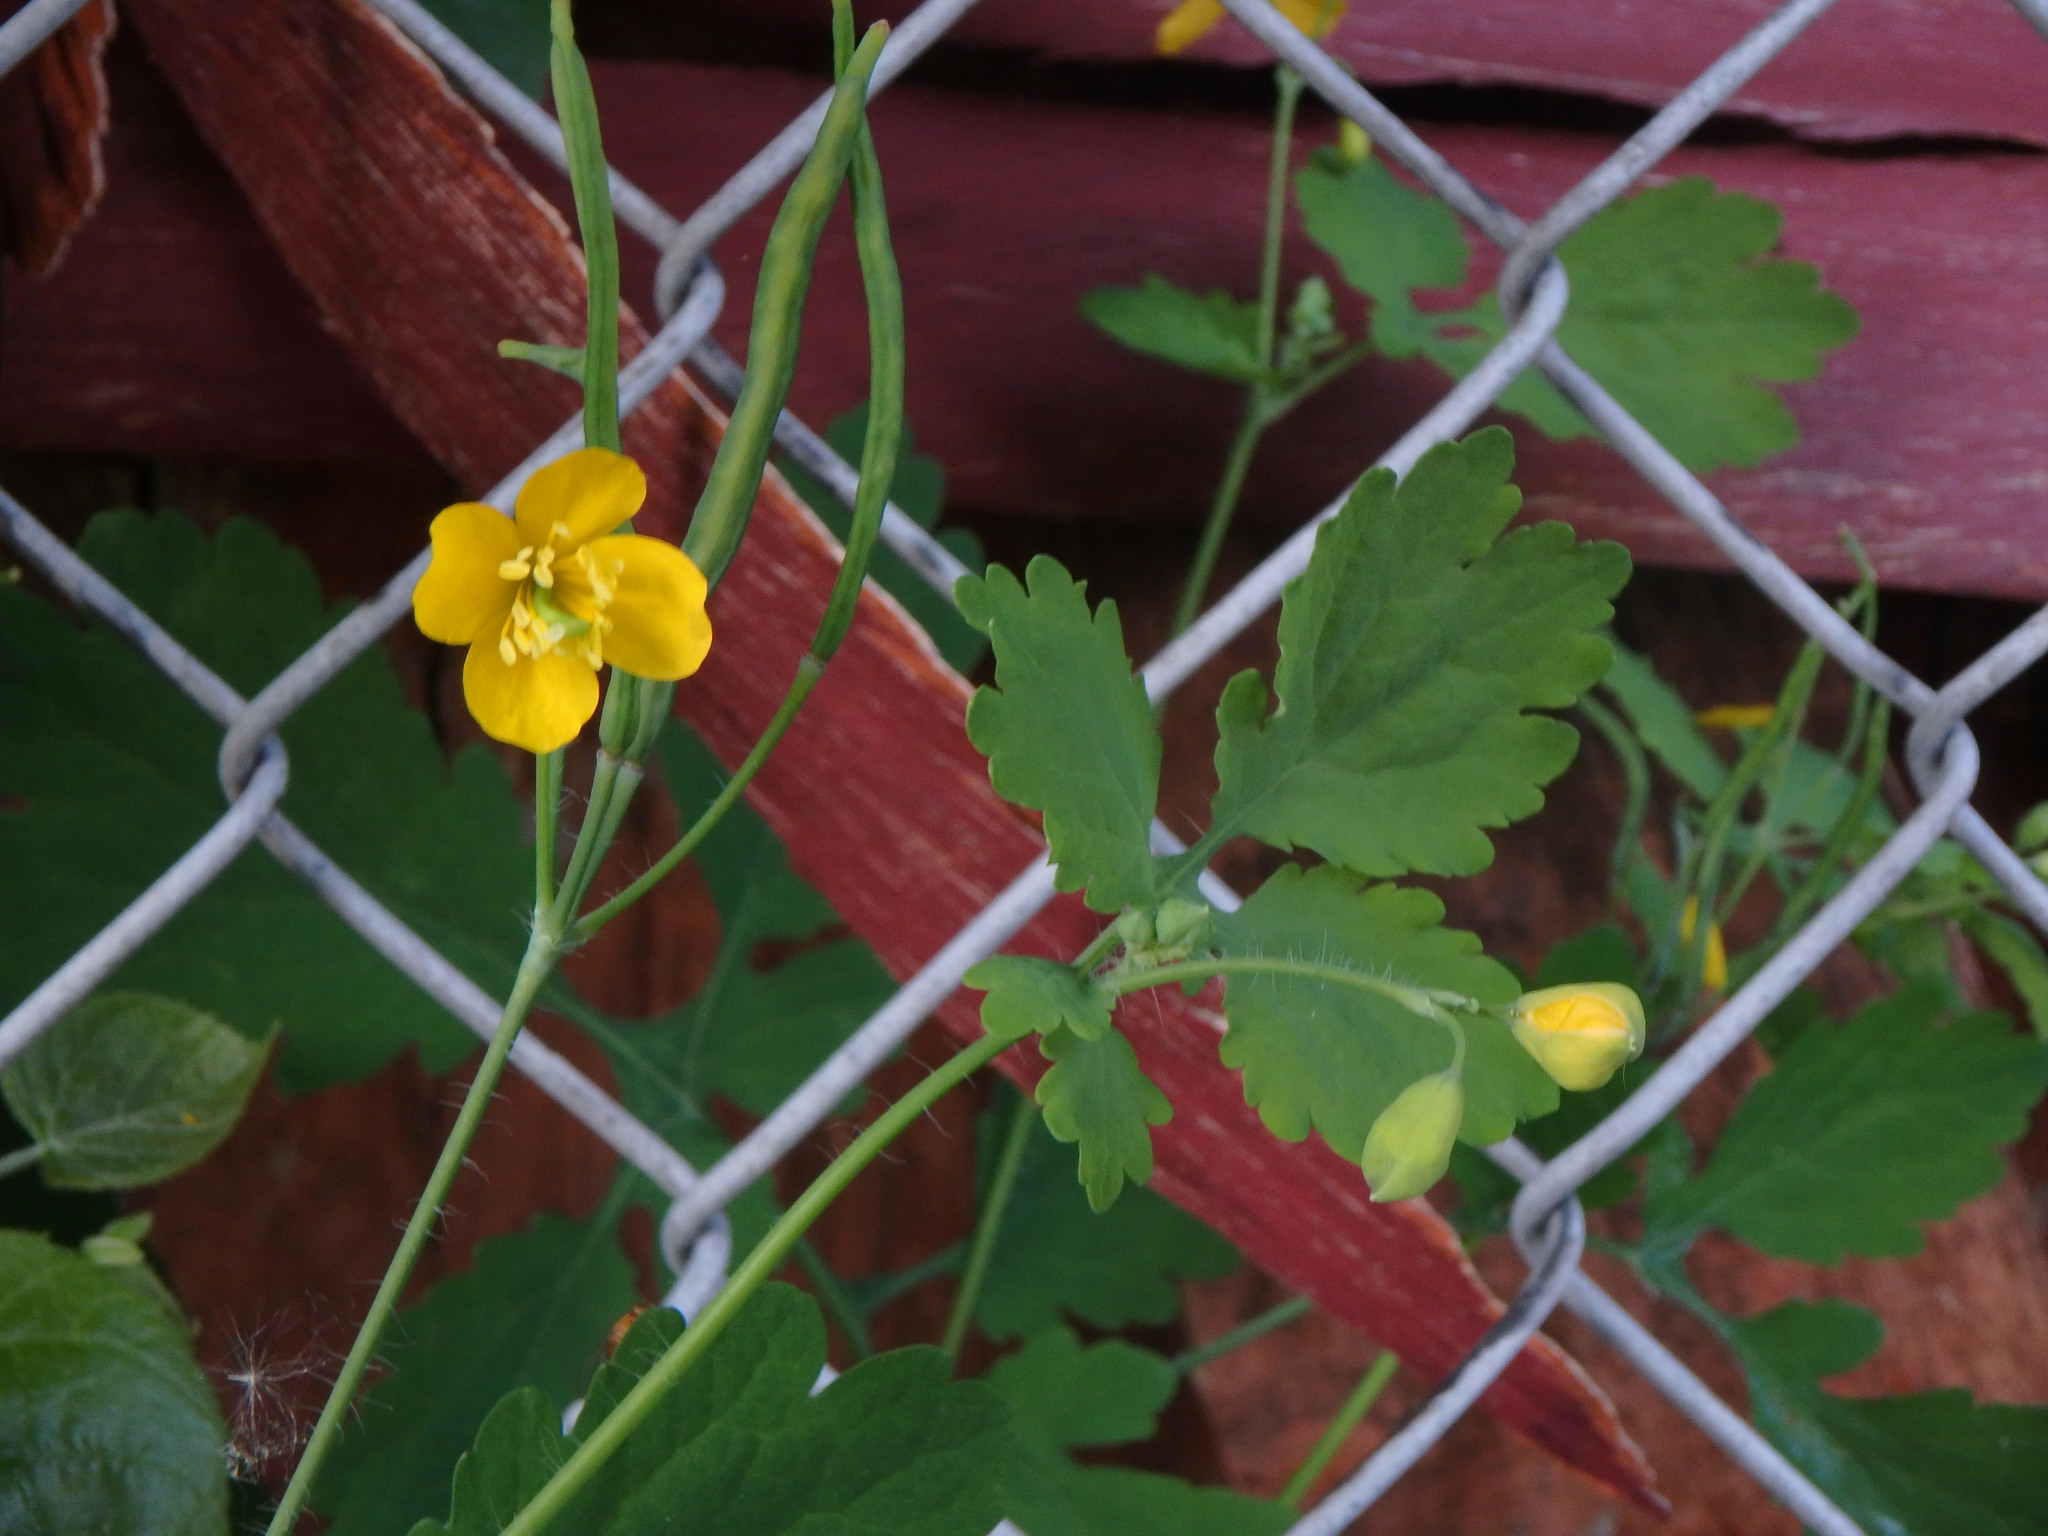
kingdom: Plantae
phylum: Tracheophyta
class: Magnoliopsida
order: Ranunculales
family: Papaveraceae
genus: Chelidonium
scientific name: Chelidonium majus
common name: Greater celandine
